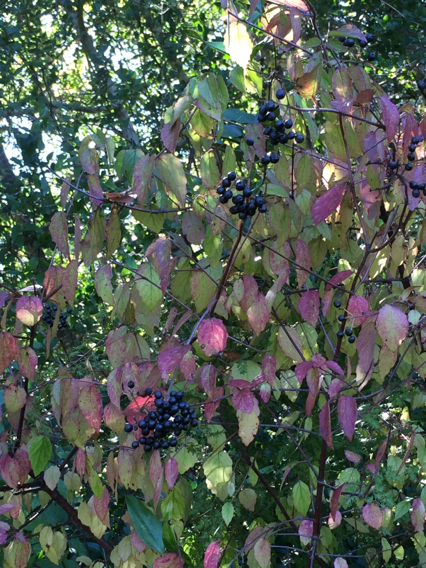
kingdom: Plantae
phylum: Tracheophyta
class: Magnoliopsida
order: Dipsacales
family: Viburnaceae
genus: Viburnum
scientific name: Viburnum scabrellum
